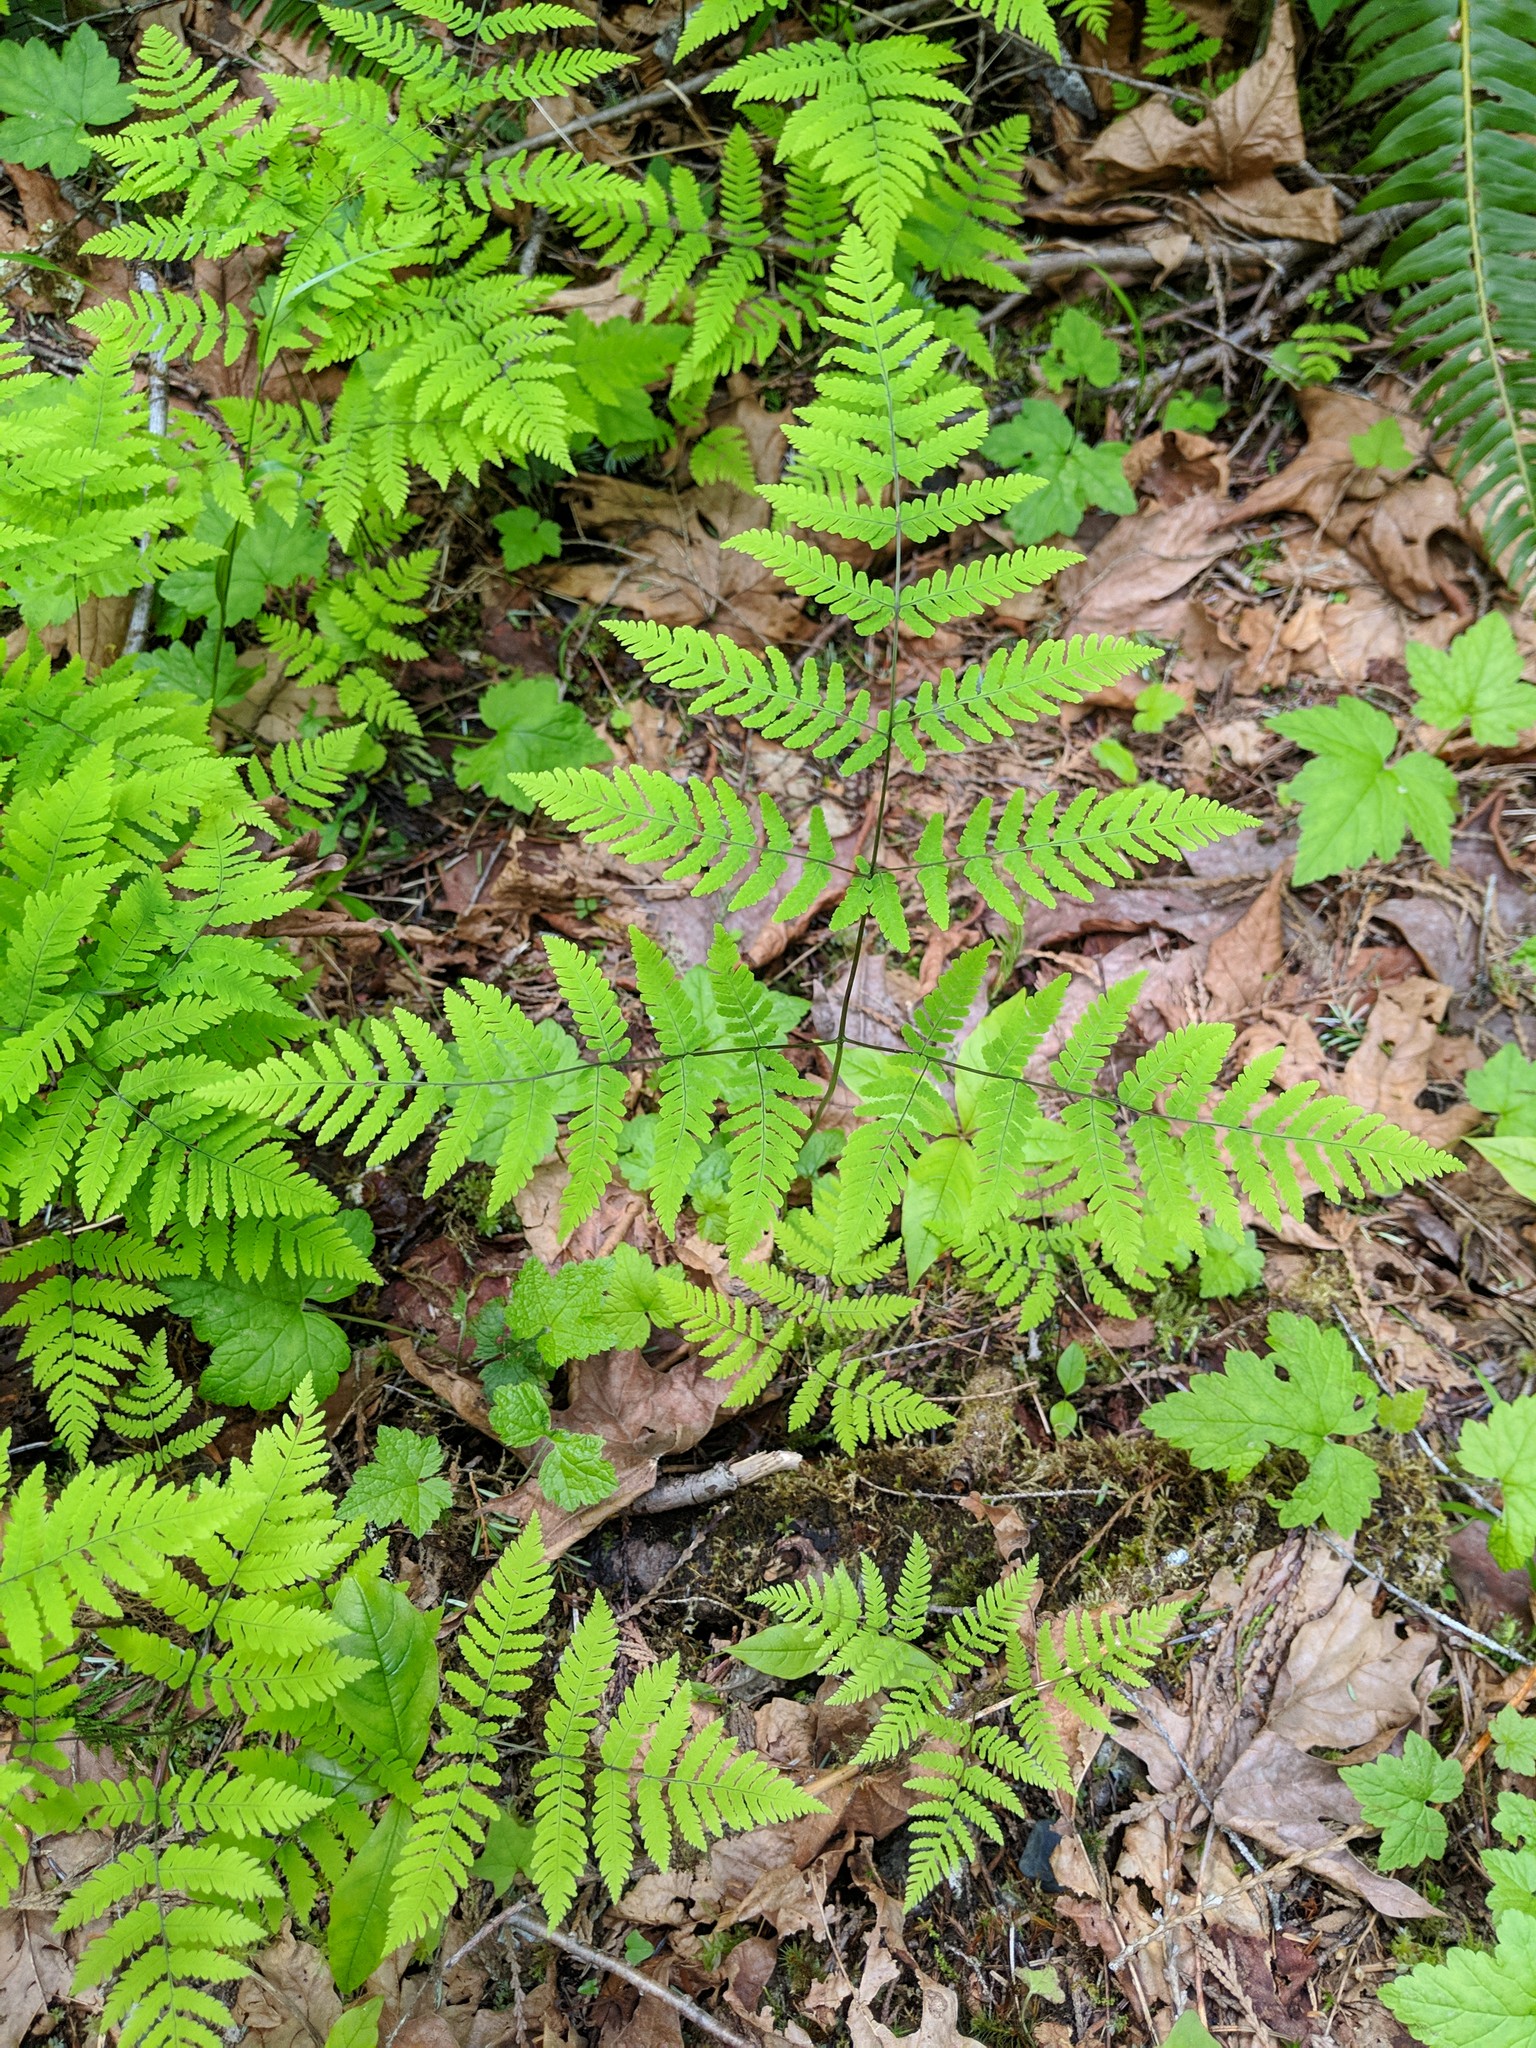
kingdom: Plantae
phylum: Tracheophyta
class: Polypodiopsida
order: Polypodiales
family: Cystopteridaceae
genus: Gymnocarpium
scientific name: Gymnocarpium disjunctum
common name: Western oak fern
